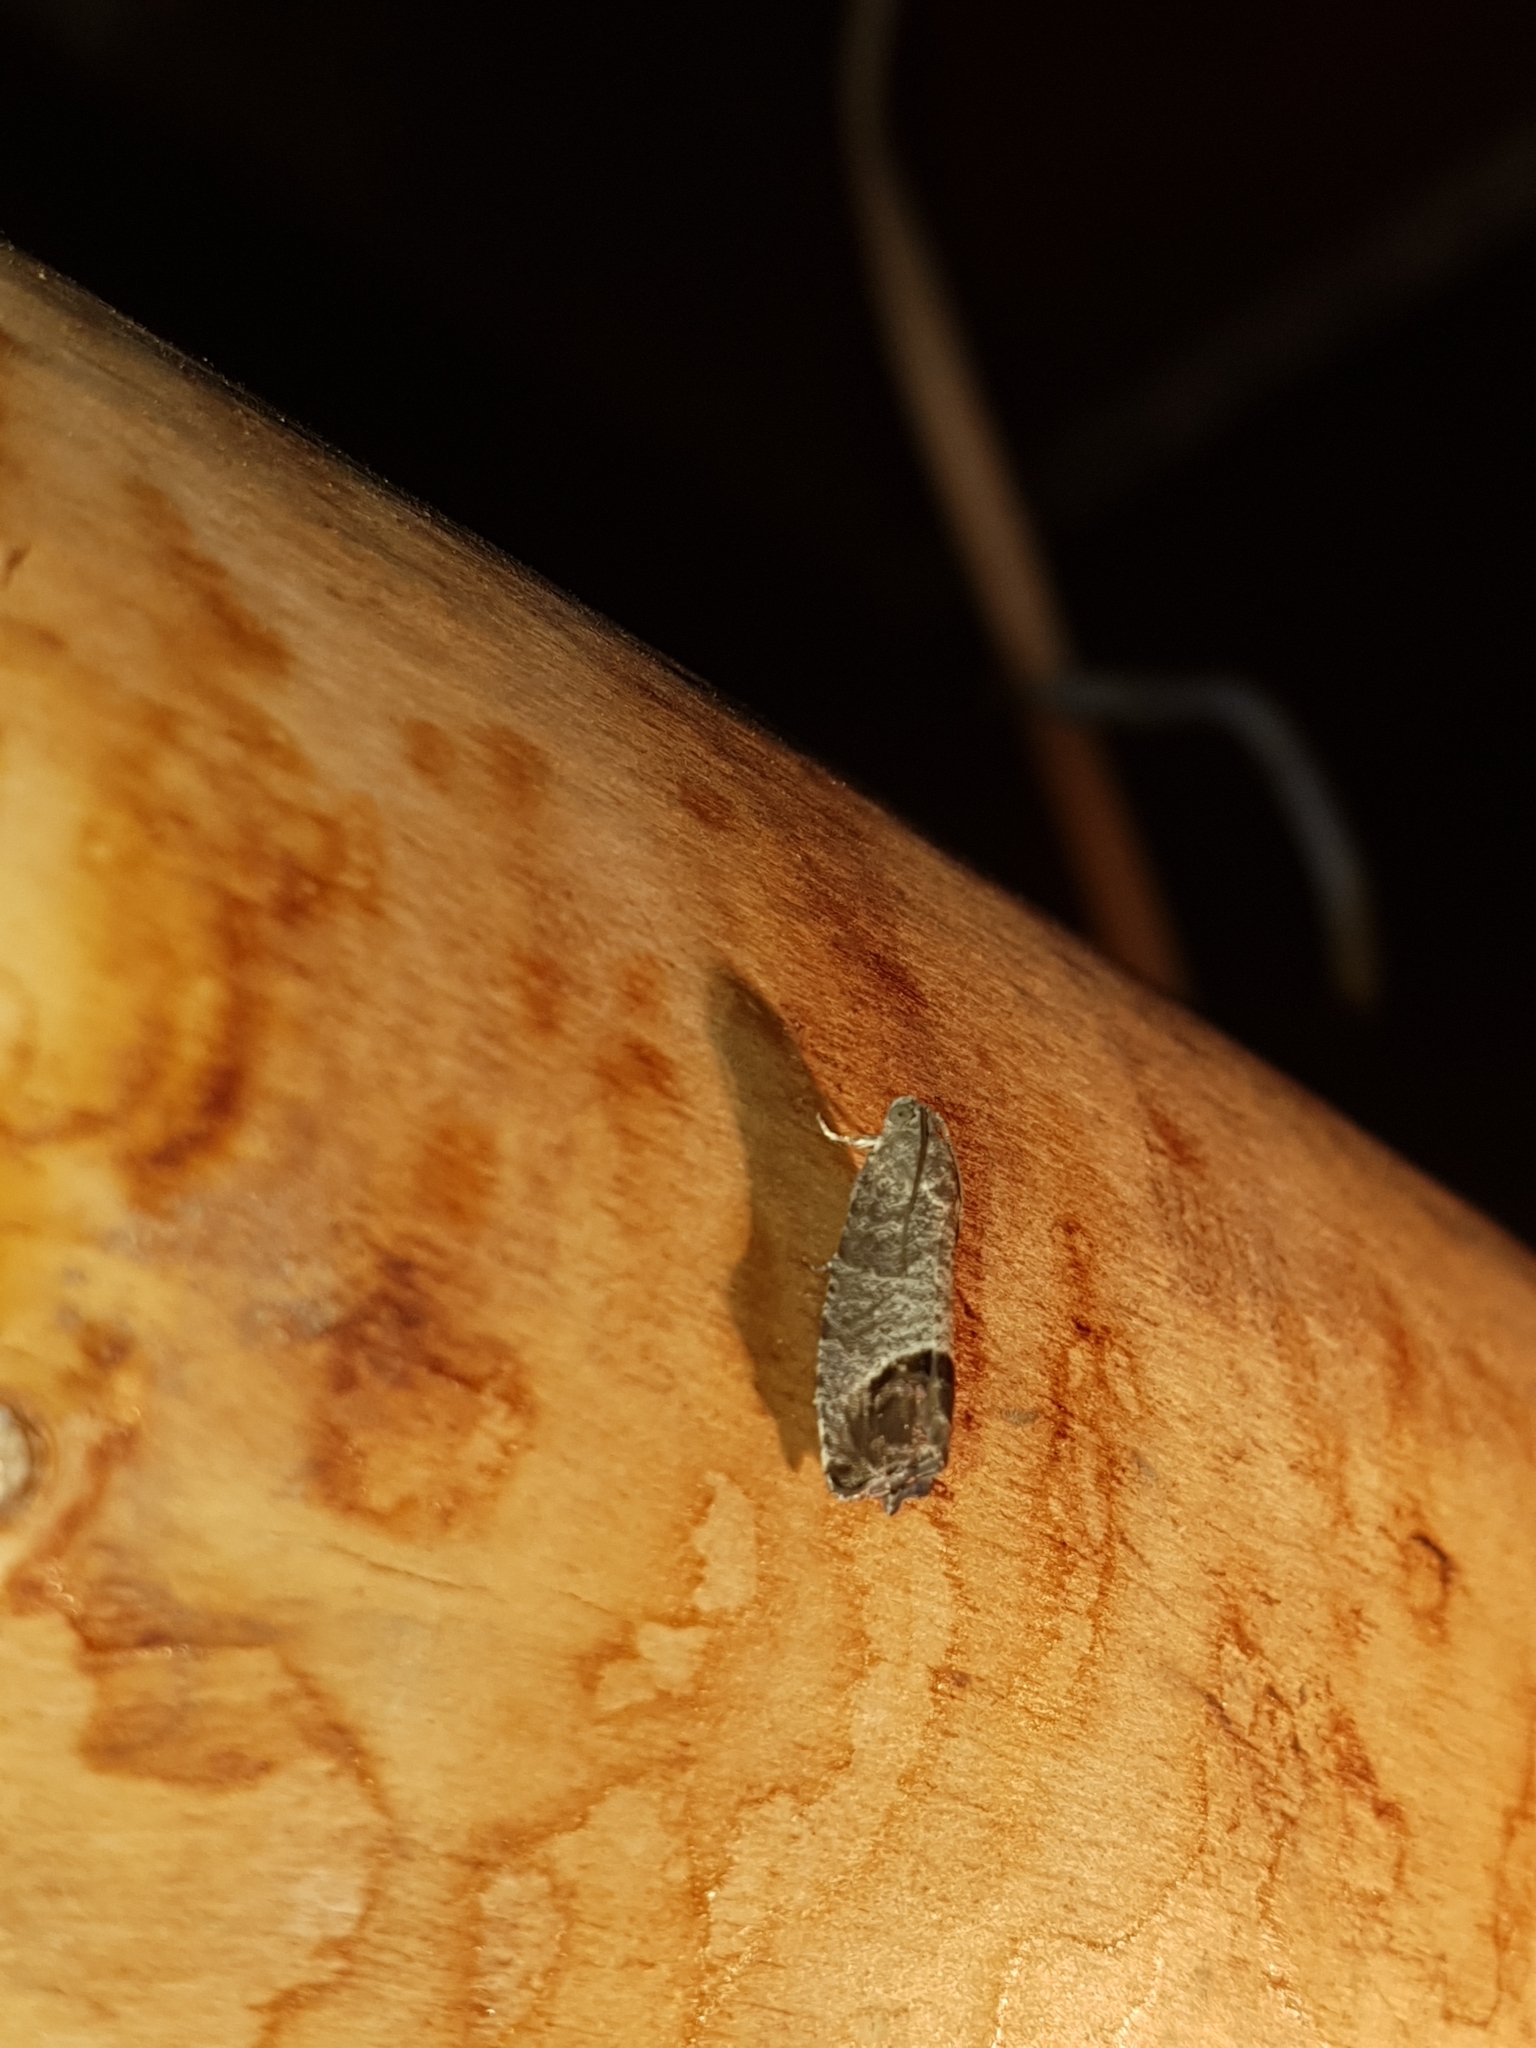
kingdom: Animalia
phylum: Arthropoda
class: Insecta
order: Lepidoptera
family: Tortricidae
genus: Cydia
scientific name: Cydia pomonella
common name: Codling moth
